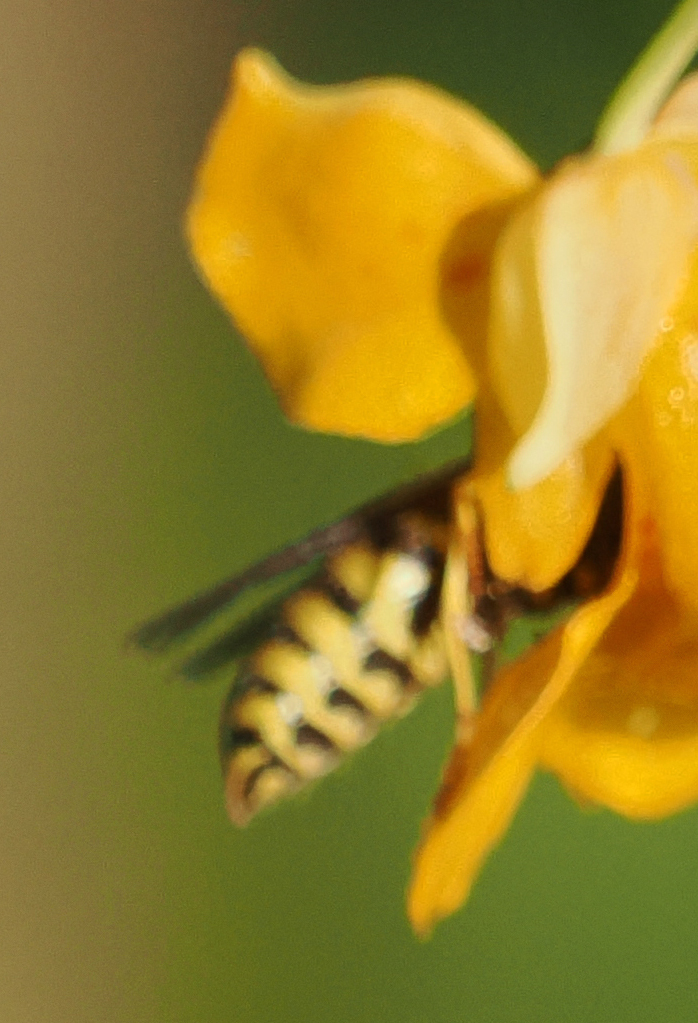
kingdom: Animalia
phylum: Arthropoda
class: Insecta
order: Hymenoptera
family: Vespidae
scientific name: Vespidae
